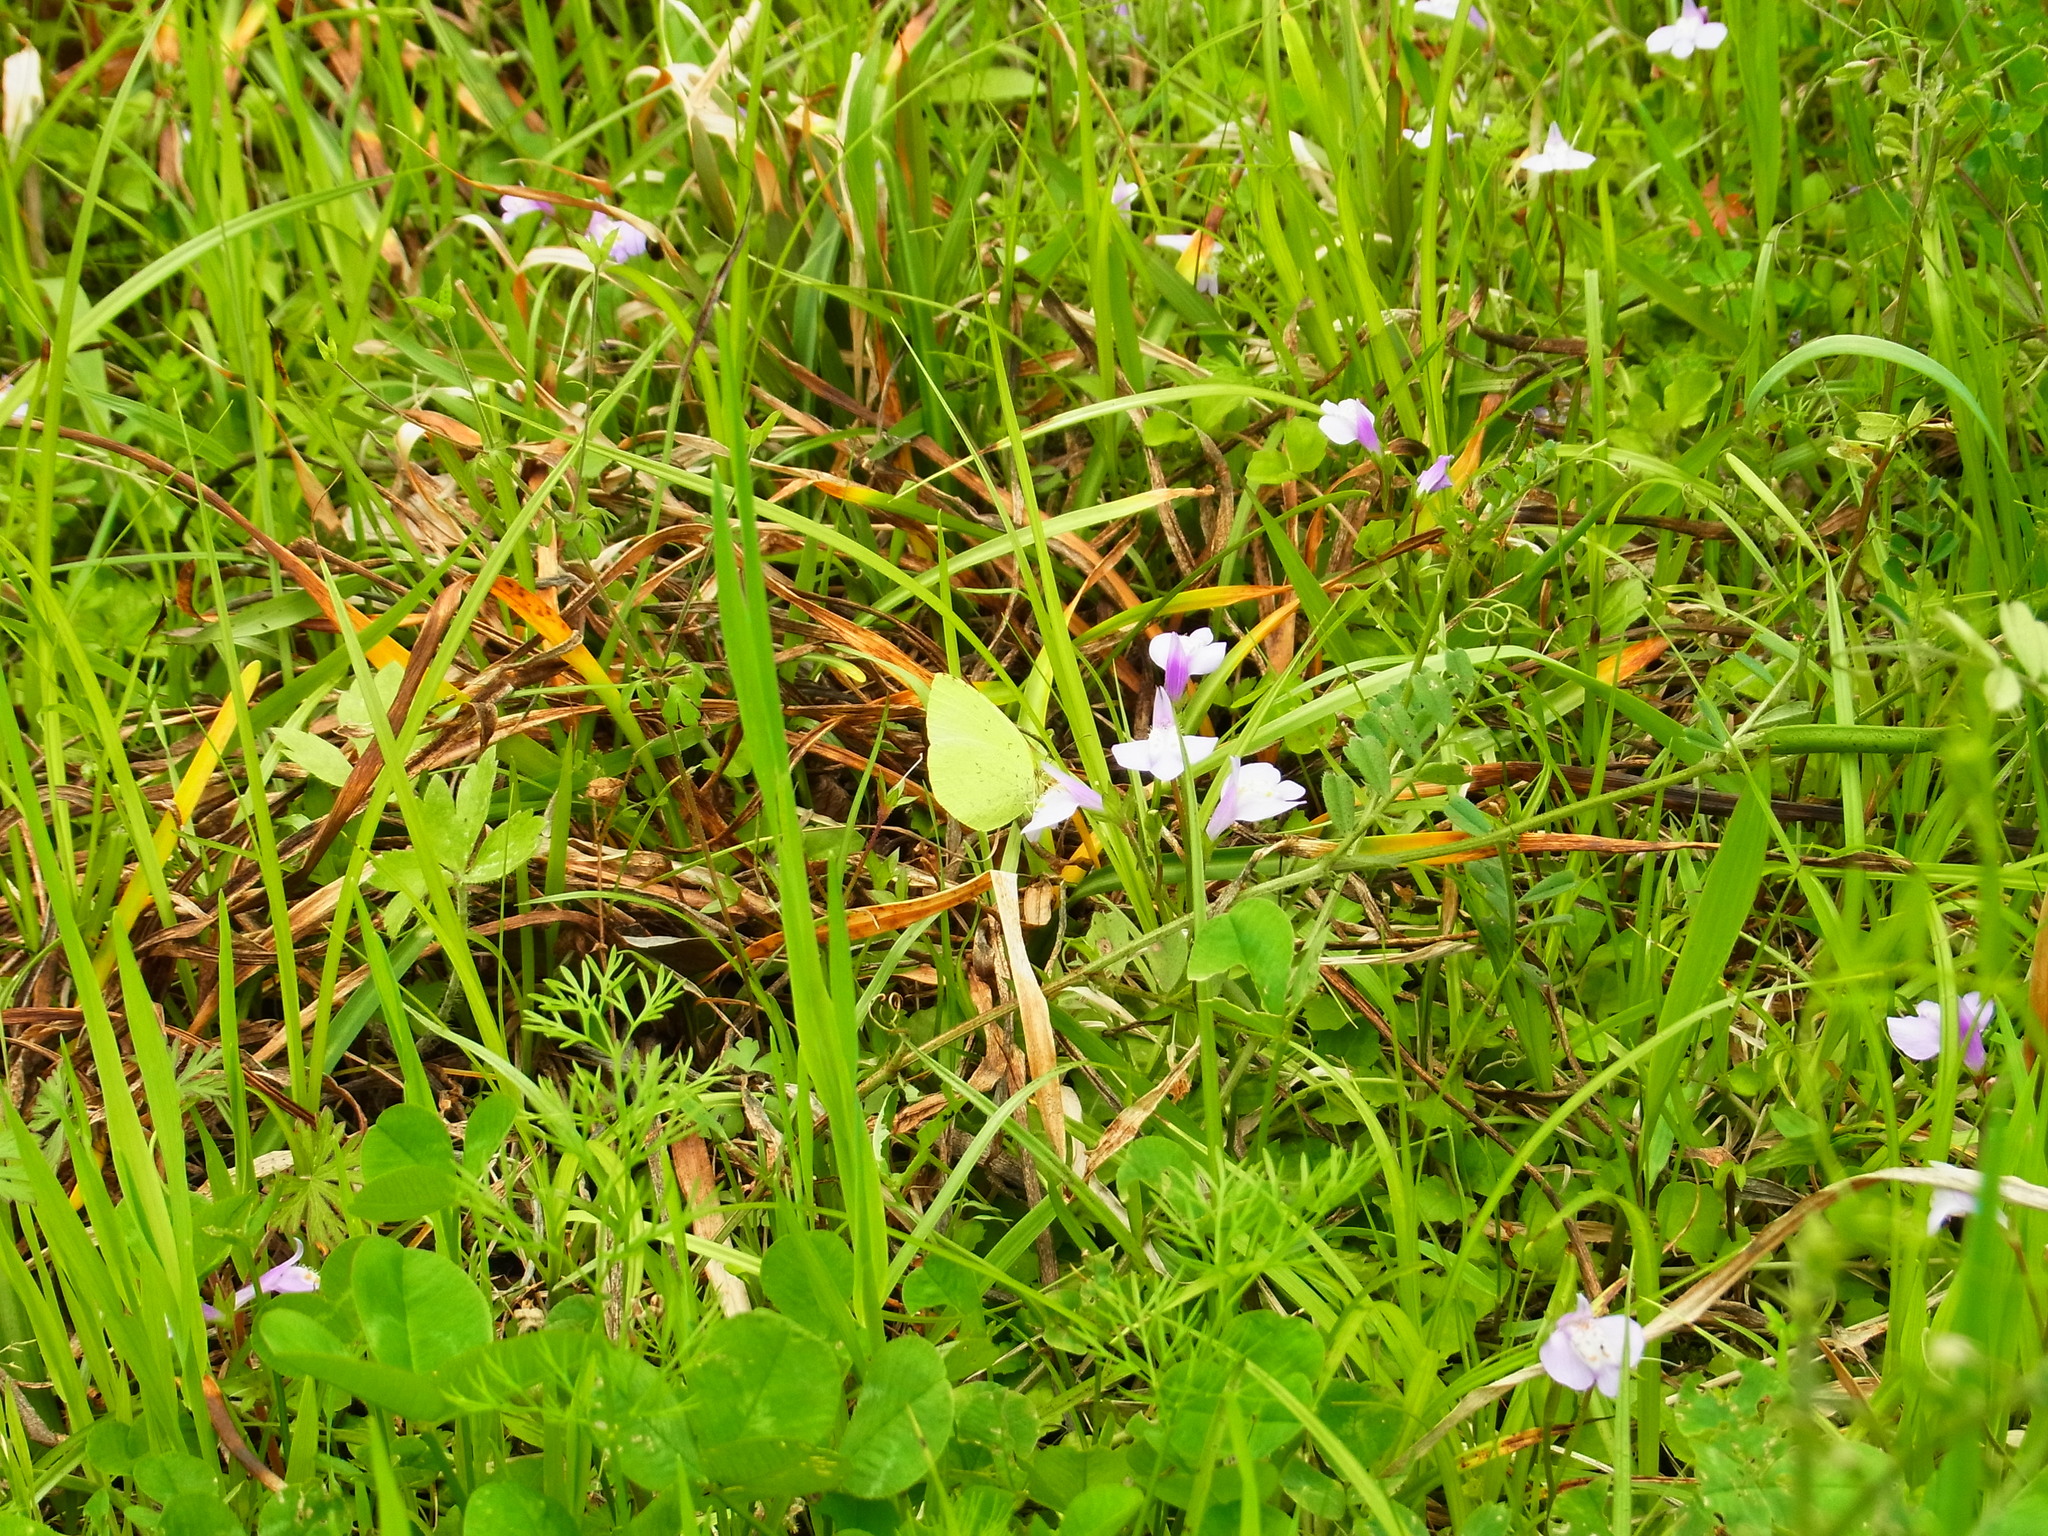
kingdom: Animalia
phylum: Arthropoda
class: Insecta
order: Lepidoptera
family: Pieridae
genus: Eurema
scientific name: Eurema mandarina
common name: Japanese common grass yellow
